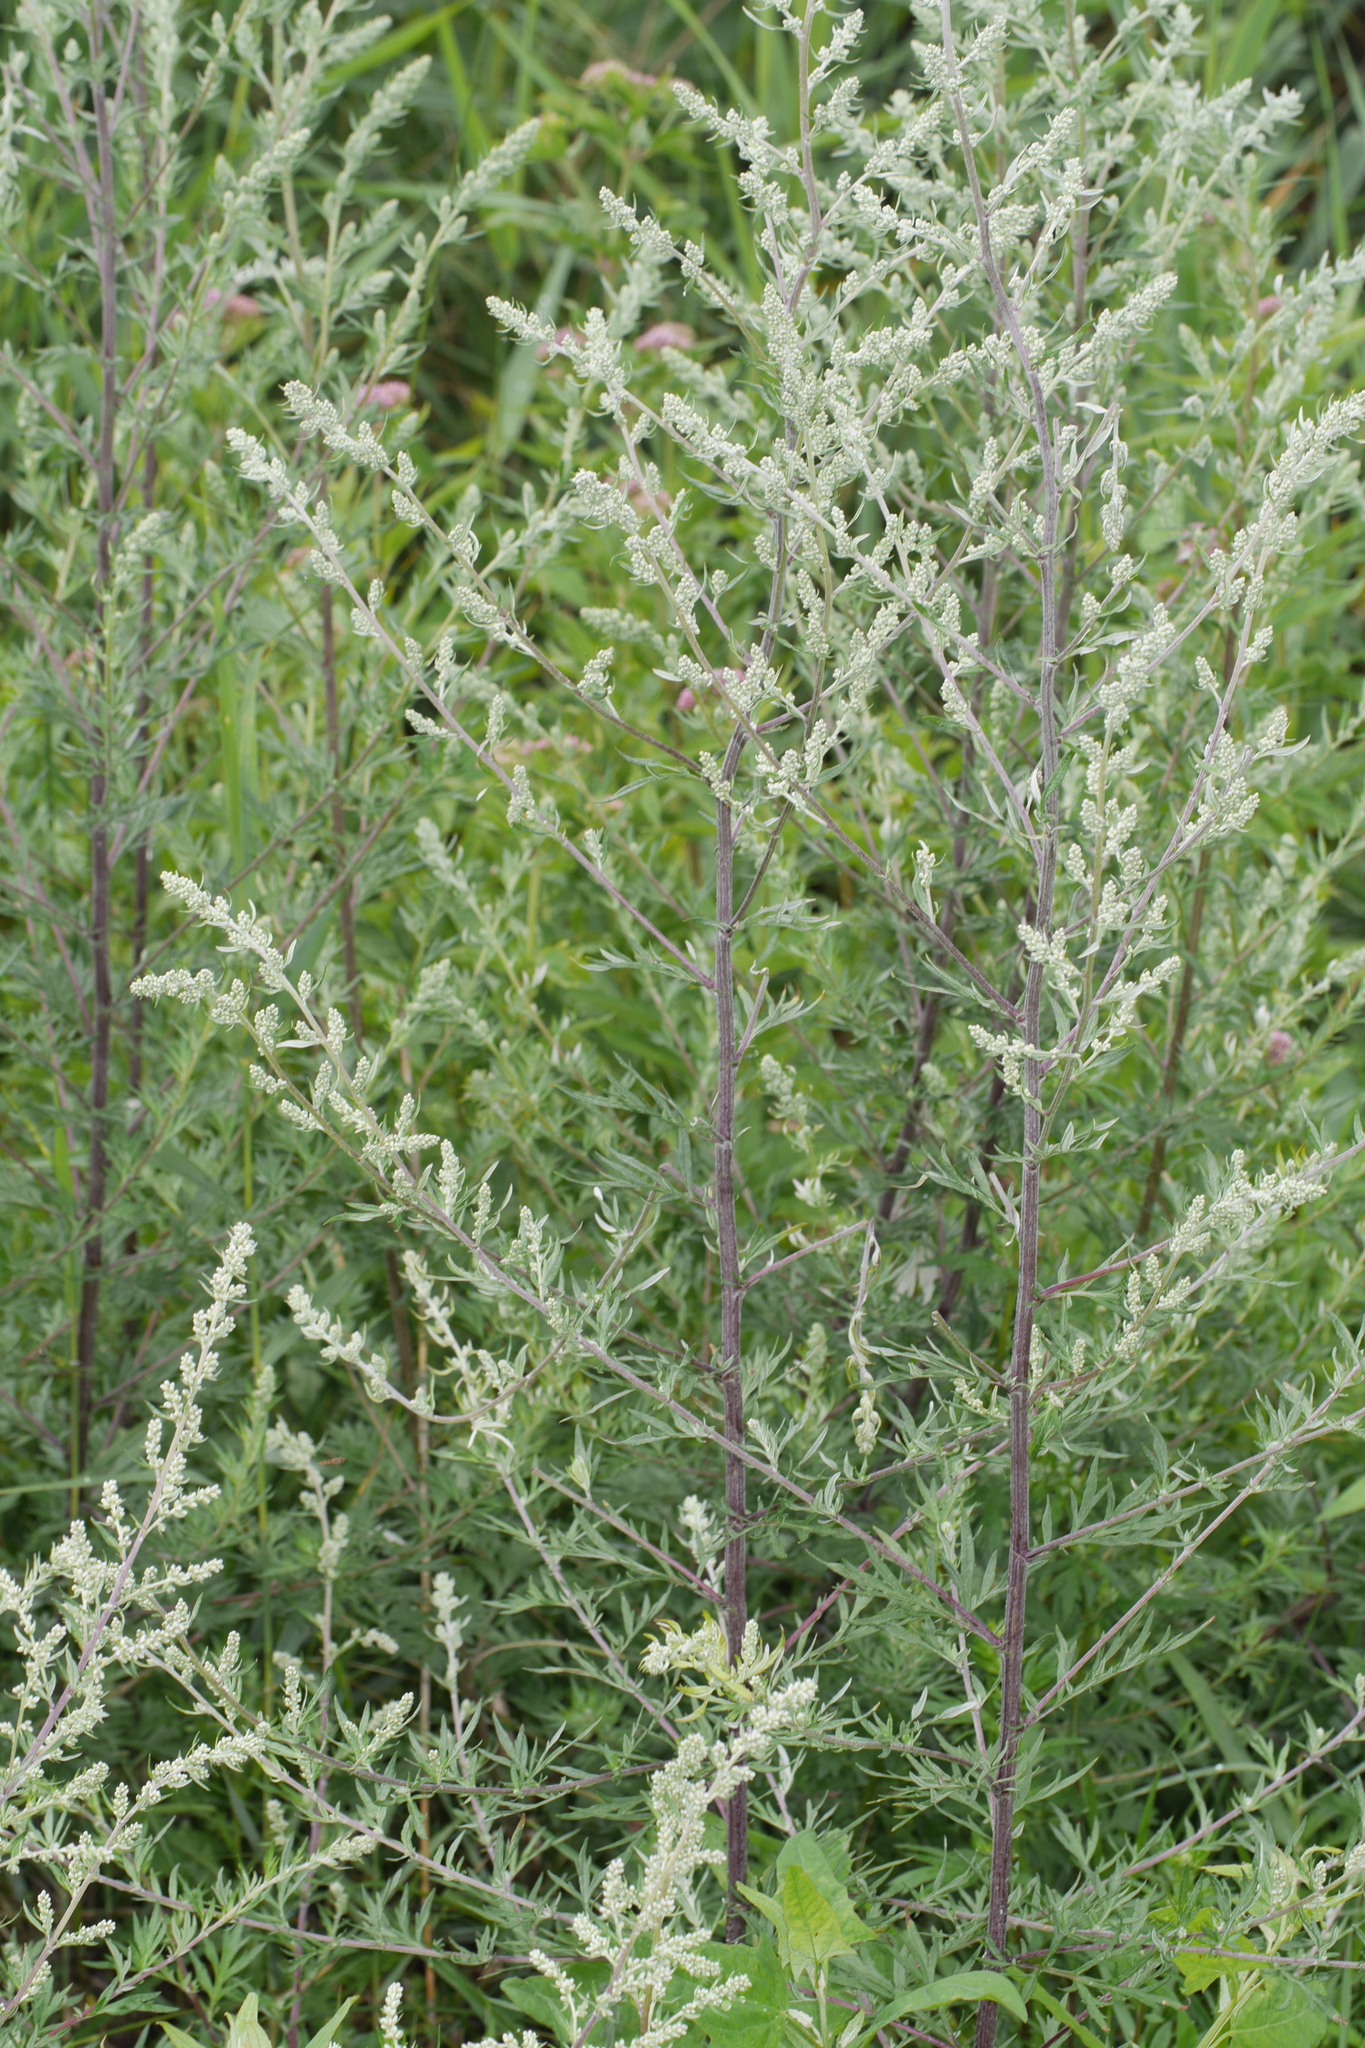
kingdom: Plantae
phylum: Tracheophyta
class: Magnoliopsida
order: Asterales
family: Asteraceae
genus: Artemisia
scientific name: Artemisia vulgaris
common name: Mugwort
